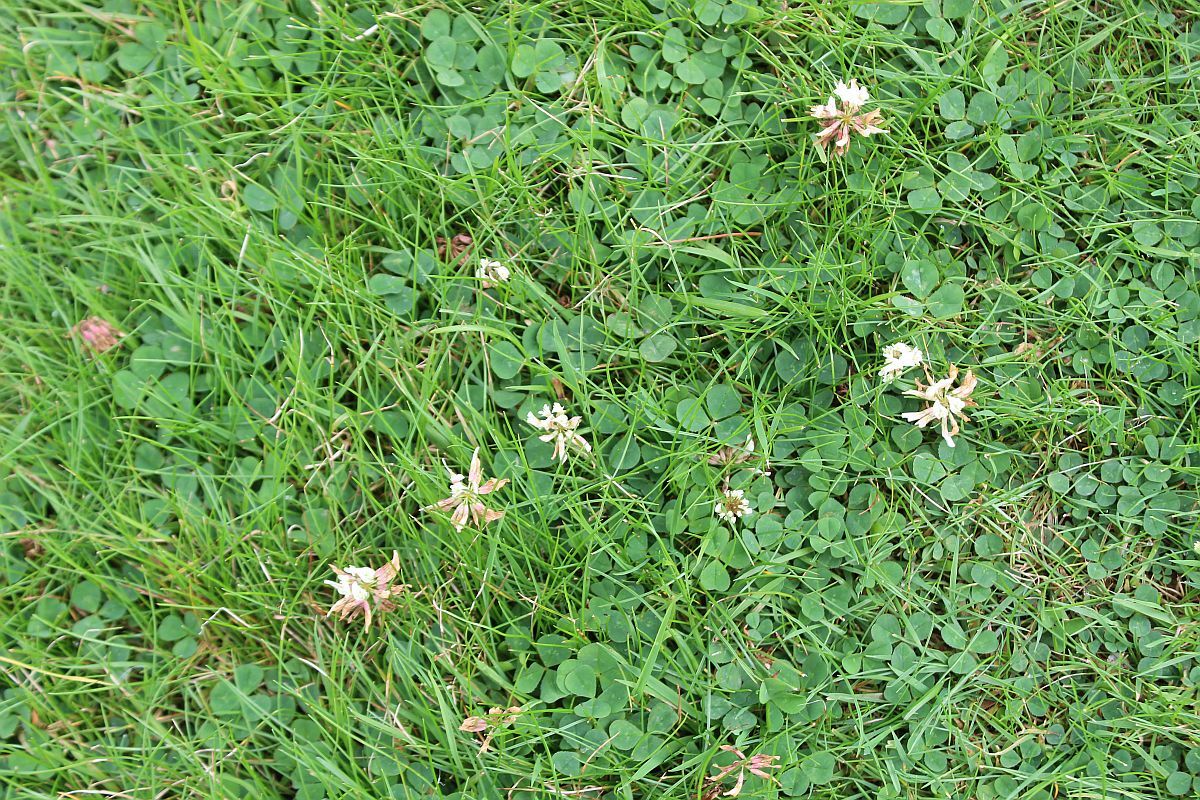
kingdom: Plantae
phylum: Tracheophyta
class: Magnoliopsida
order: Fabales
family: Fabaceae
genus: Trifolium
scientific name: Trifolium repens
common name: White clover
